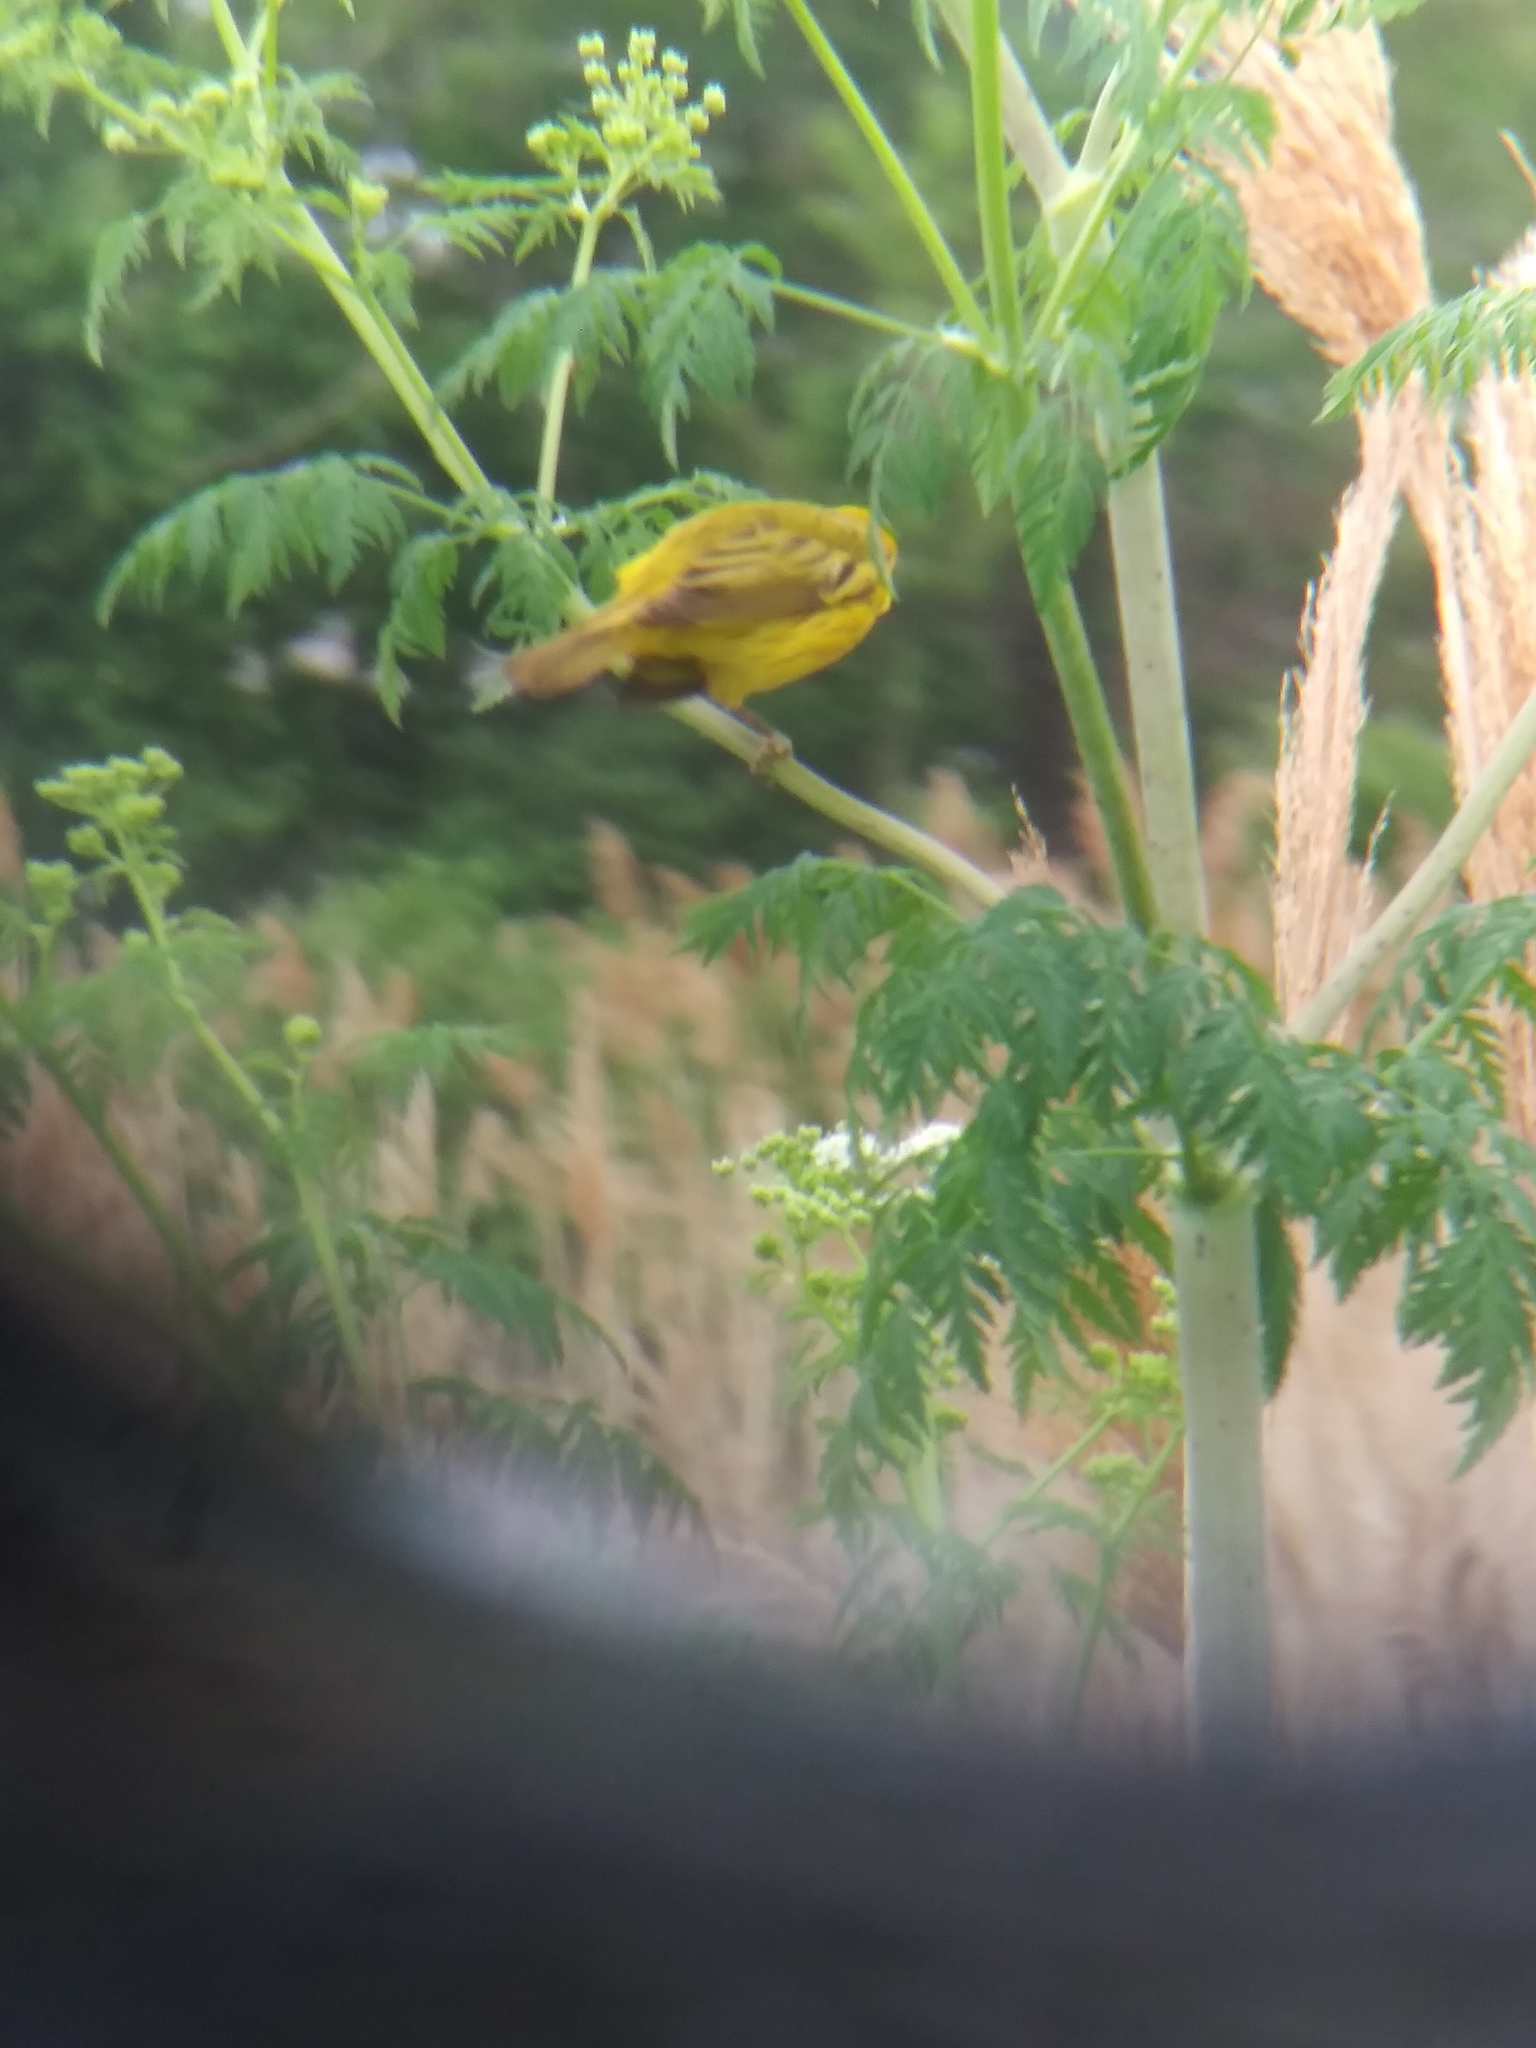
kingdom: Animalia
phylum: Chordata
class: Aves
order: Passeriformes
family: Parulidae
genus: Setophaga
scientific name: Setophaga petechia
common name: Yellow warbler
